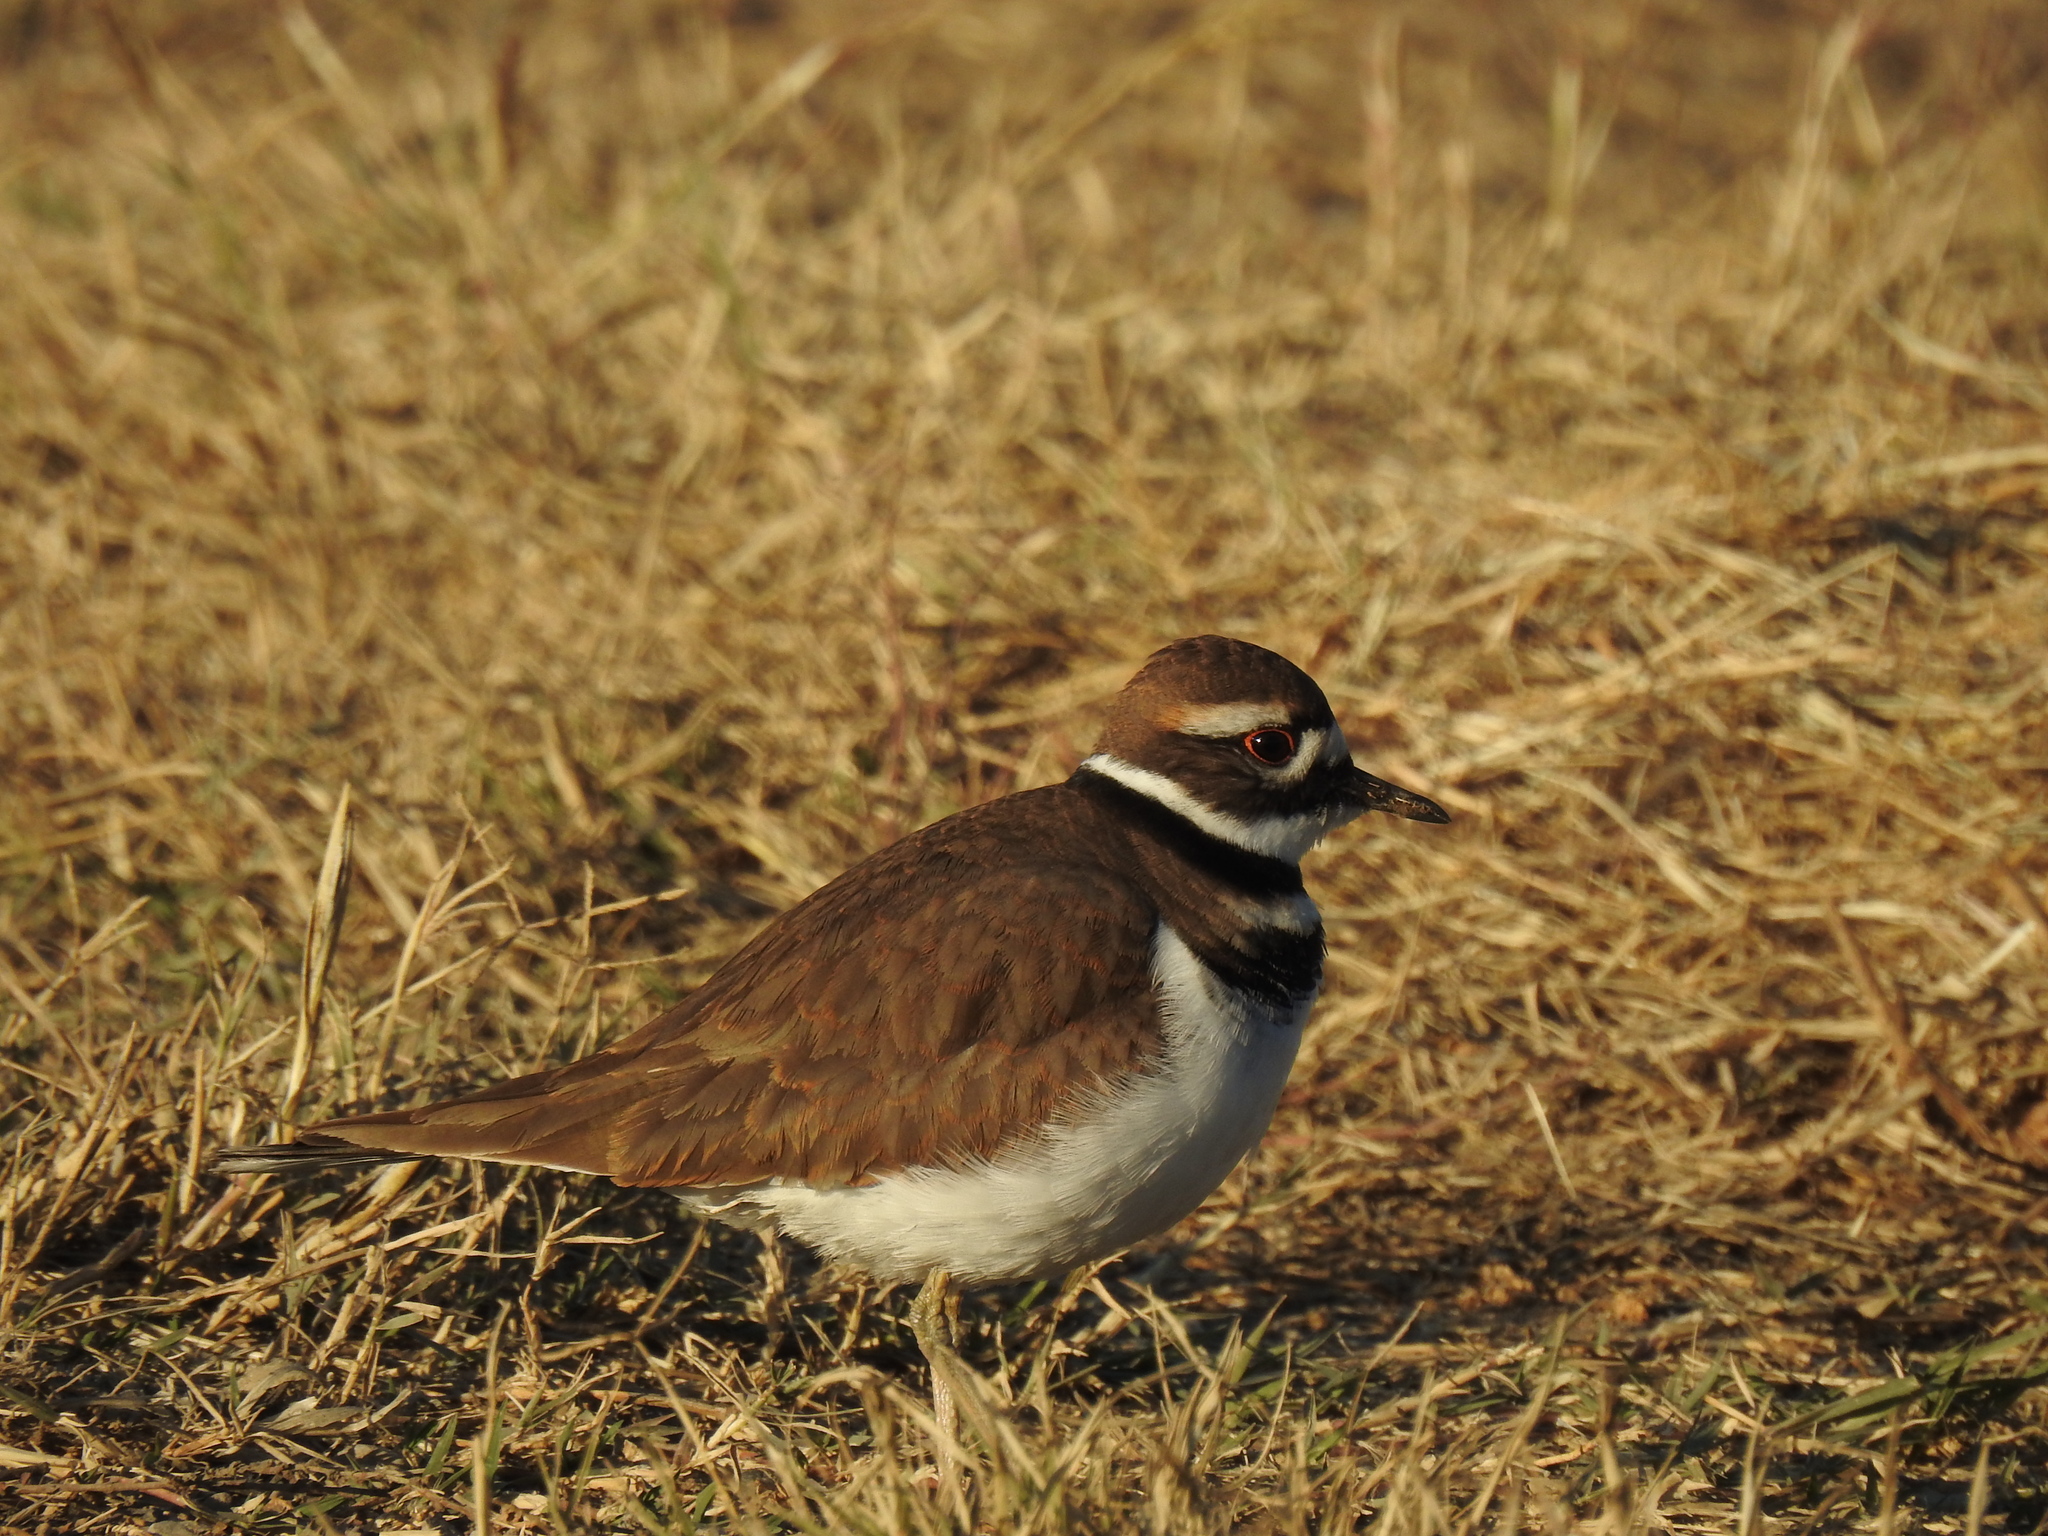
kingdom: Animalia
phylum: Chordata
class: Aves
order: Charadriiformes
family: Charadriidae
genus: Charadrius
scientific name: Charadrius vociferus
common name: Killdeer
